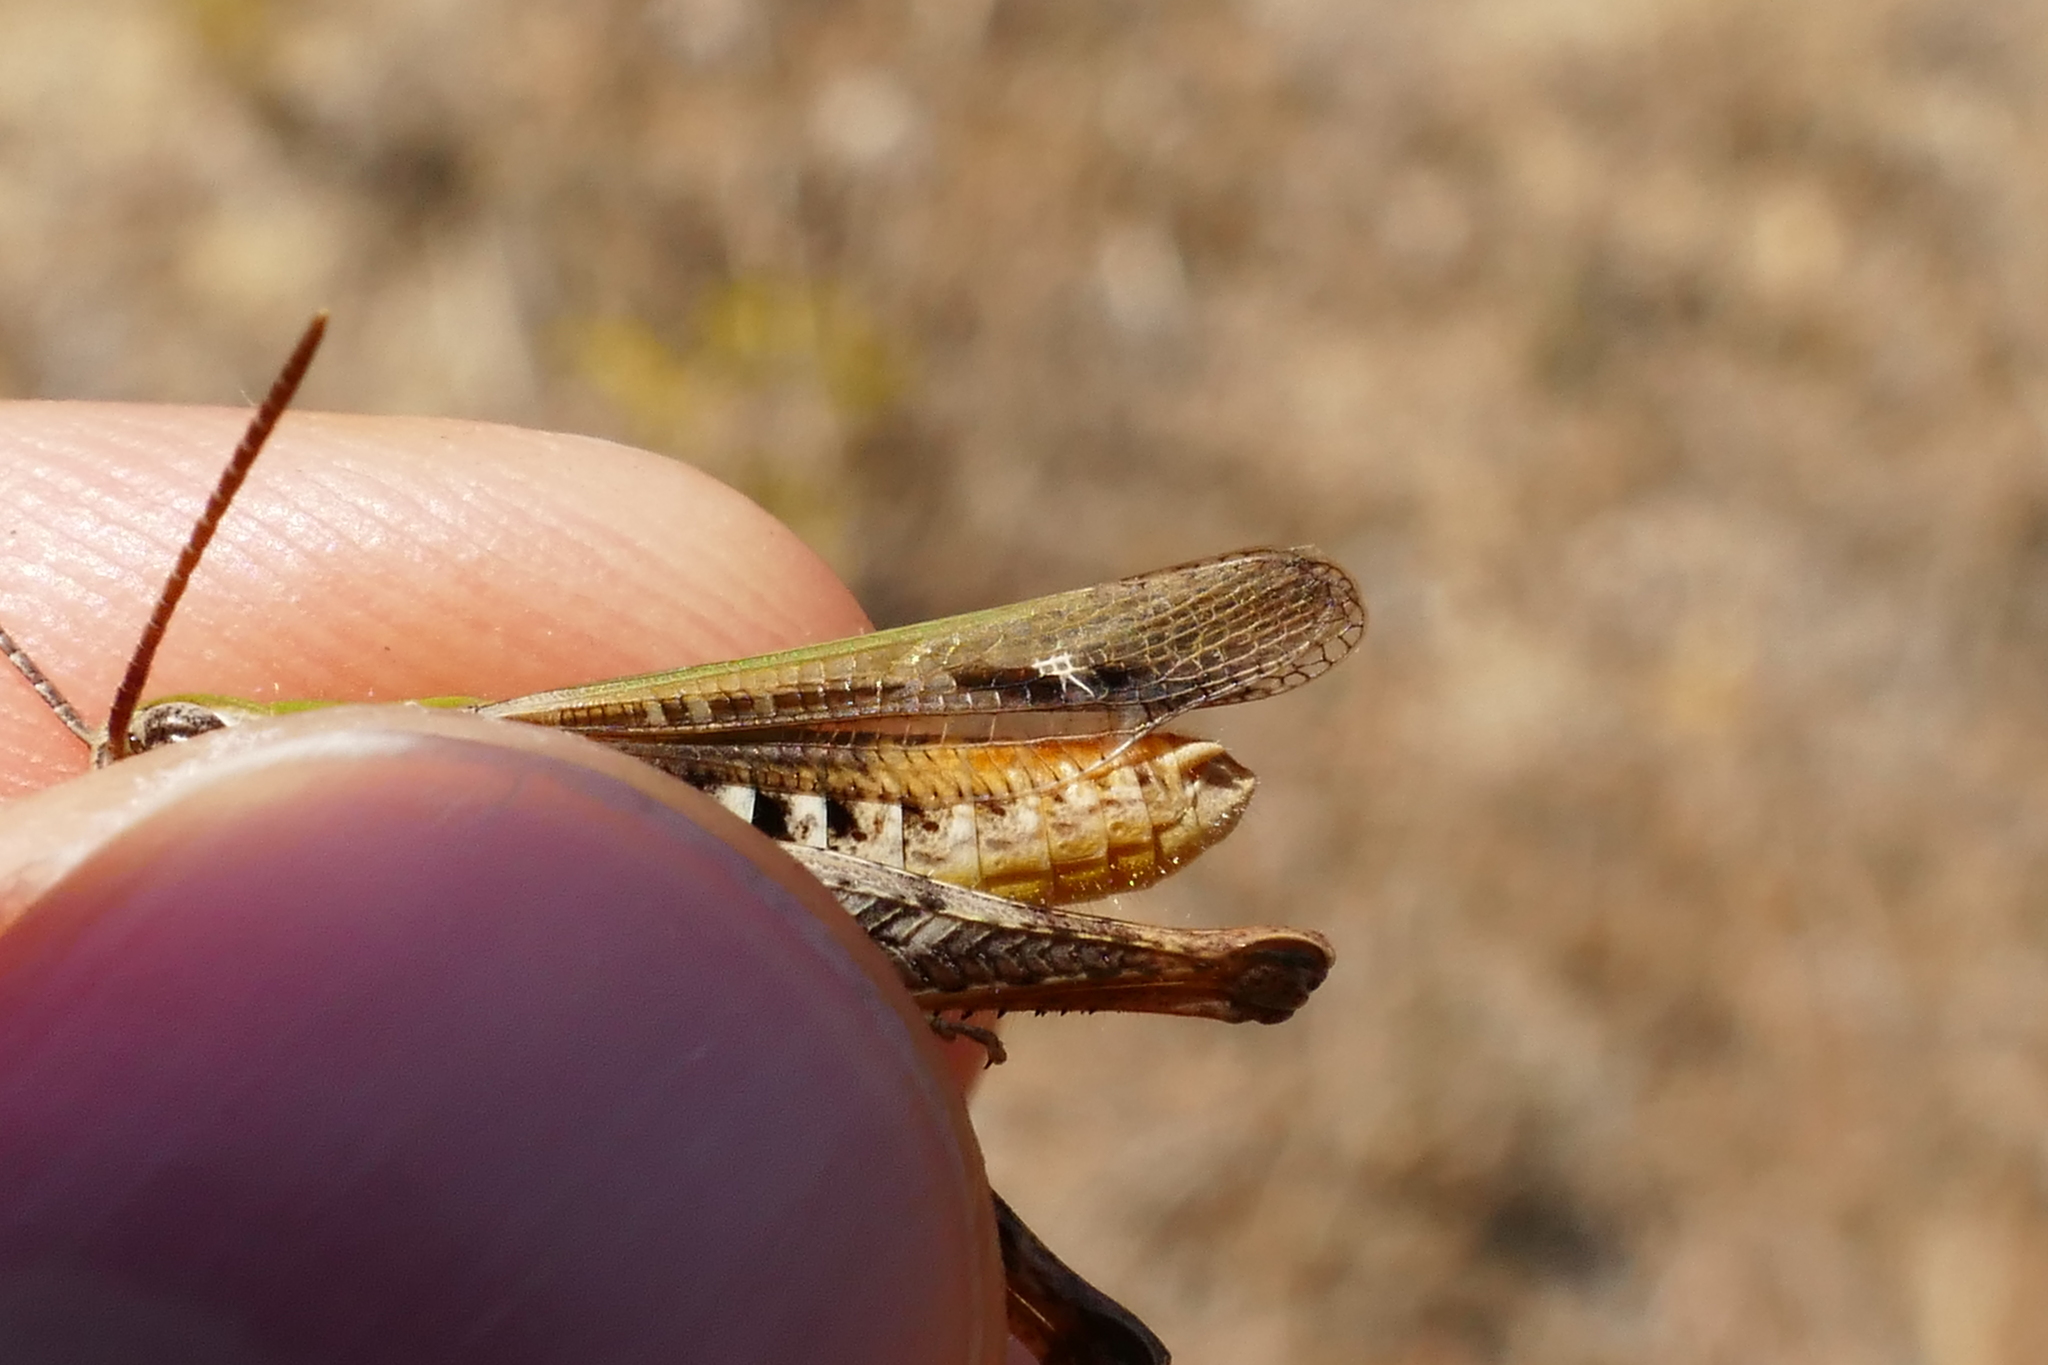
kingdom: Animalia
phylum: Arthropoda
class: Insecta
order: Orthoptera
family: Acrididae
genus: Chorthippus
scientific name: Chorthippus biguttulus
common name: Bow-winged grasshopper
